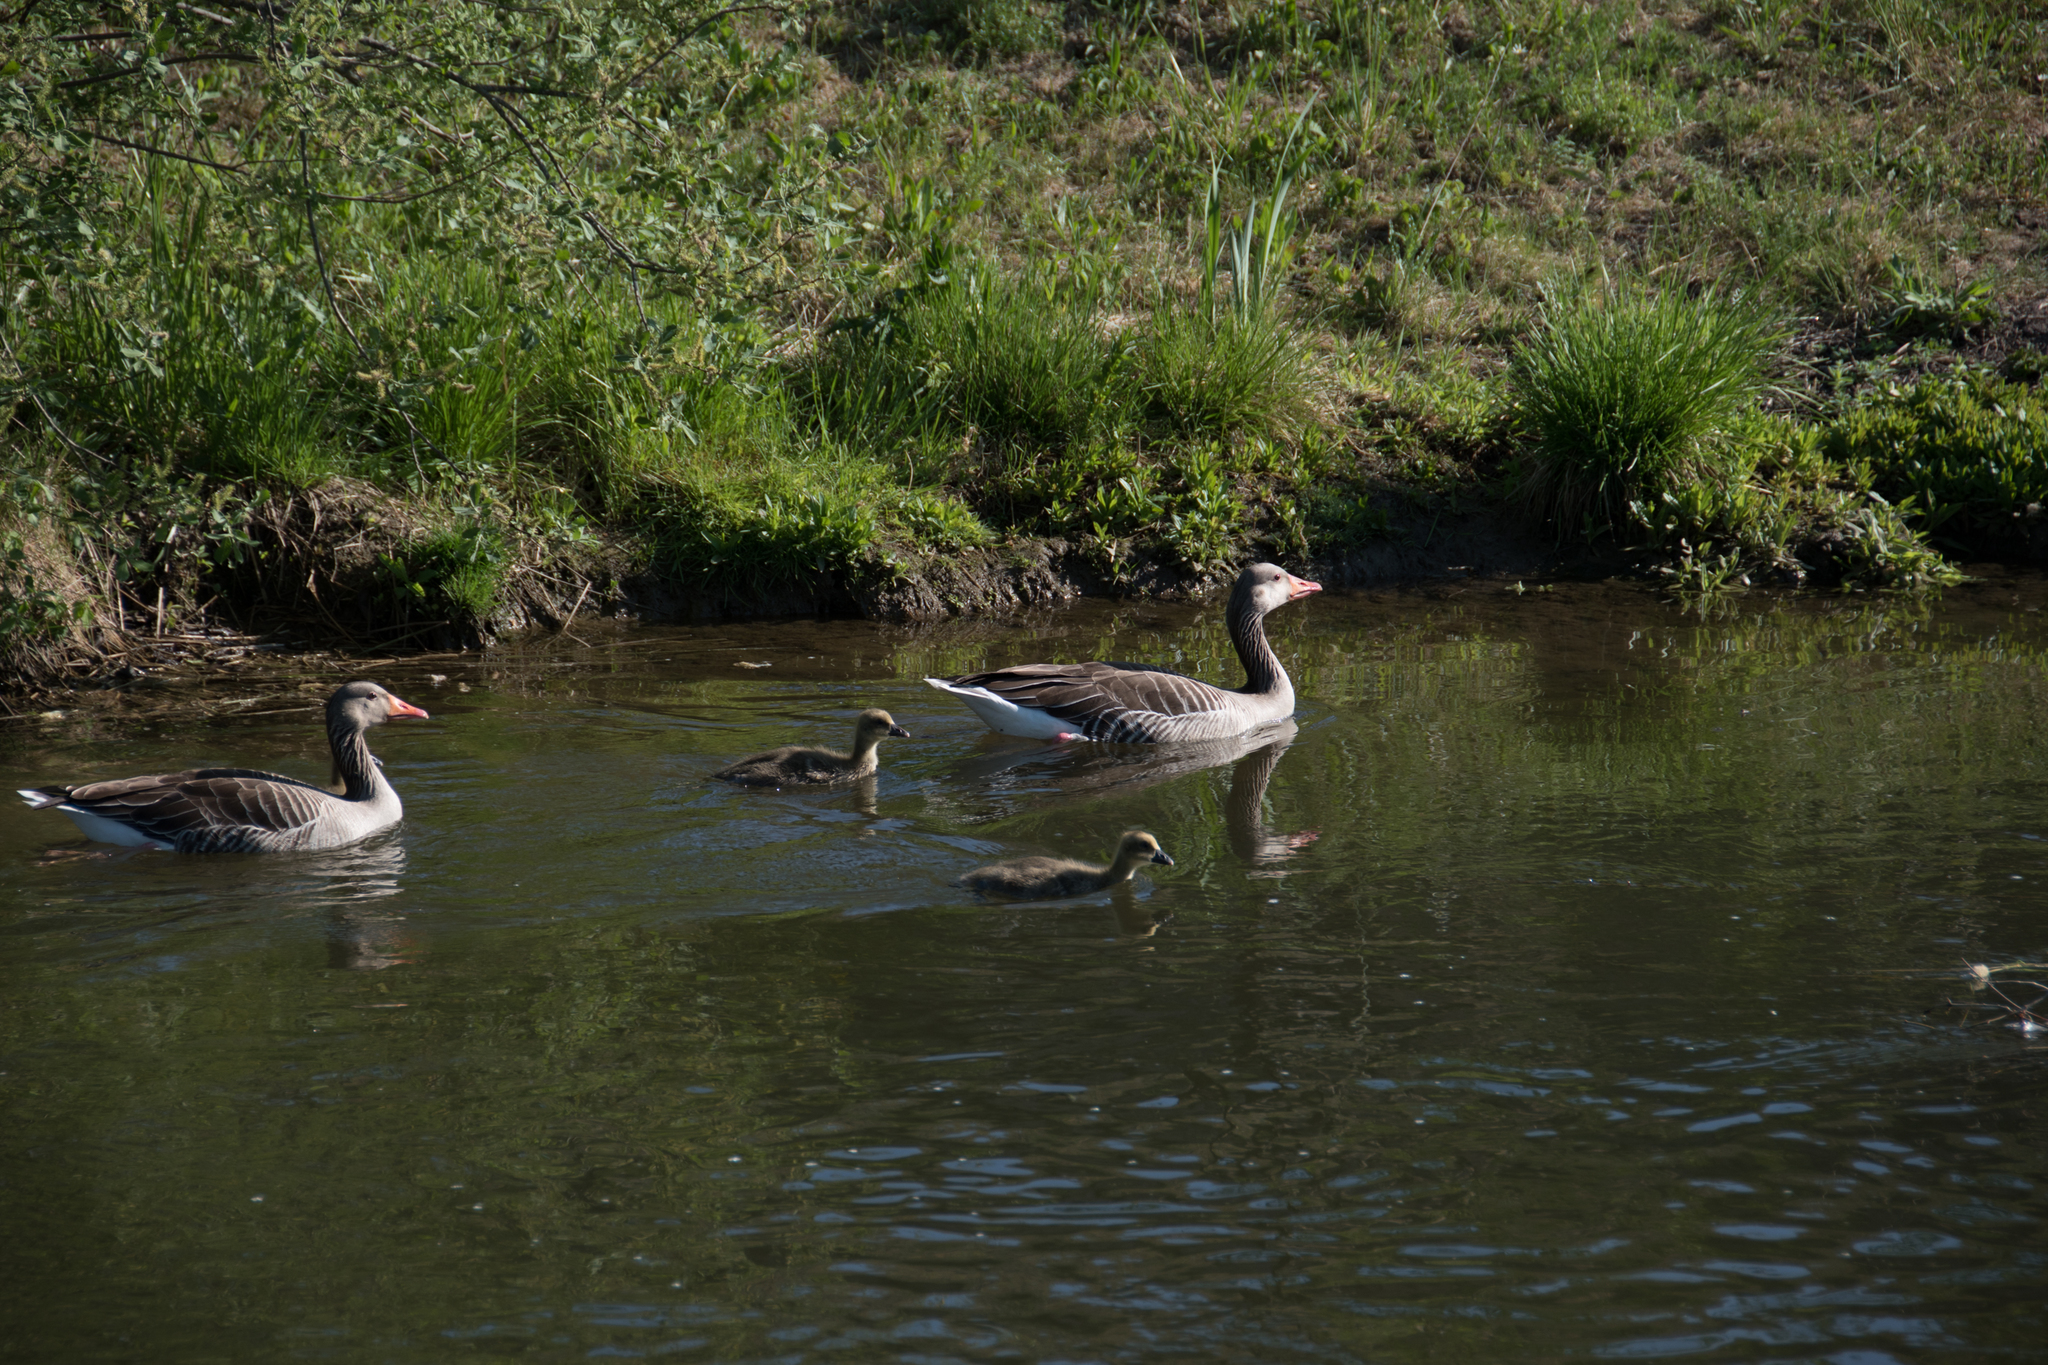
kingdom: Animalia
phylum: Chordata
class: Aves
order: Anseriformes
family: Anatidae
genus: Anser
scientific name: Anser anser
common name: Greylag goose
